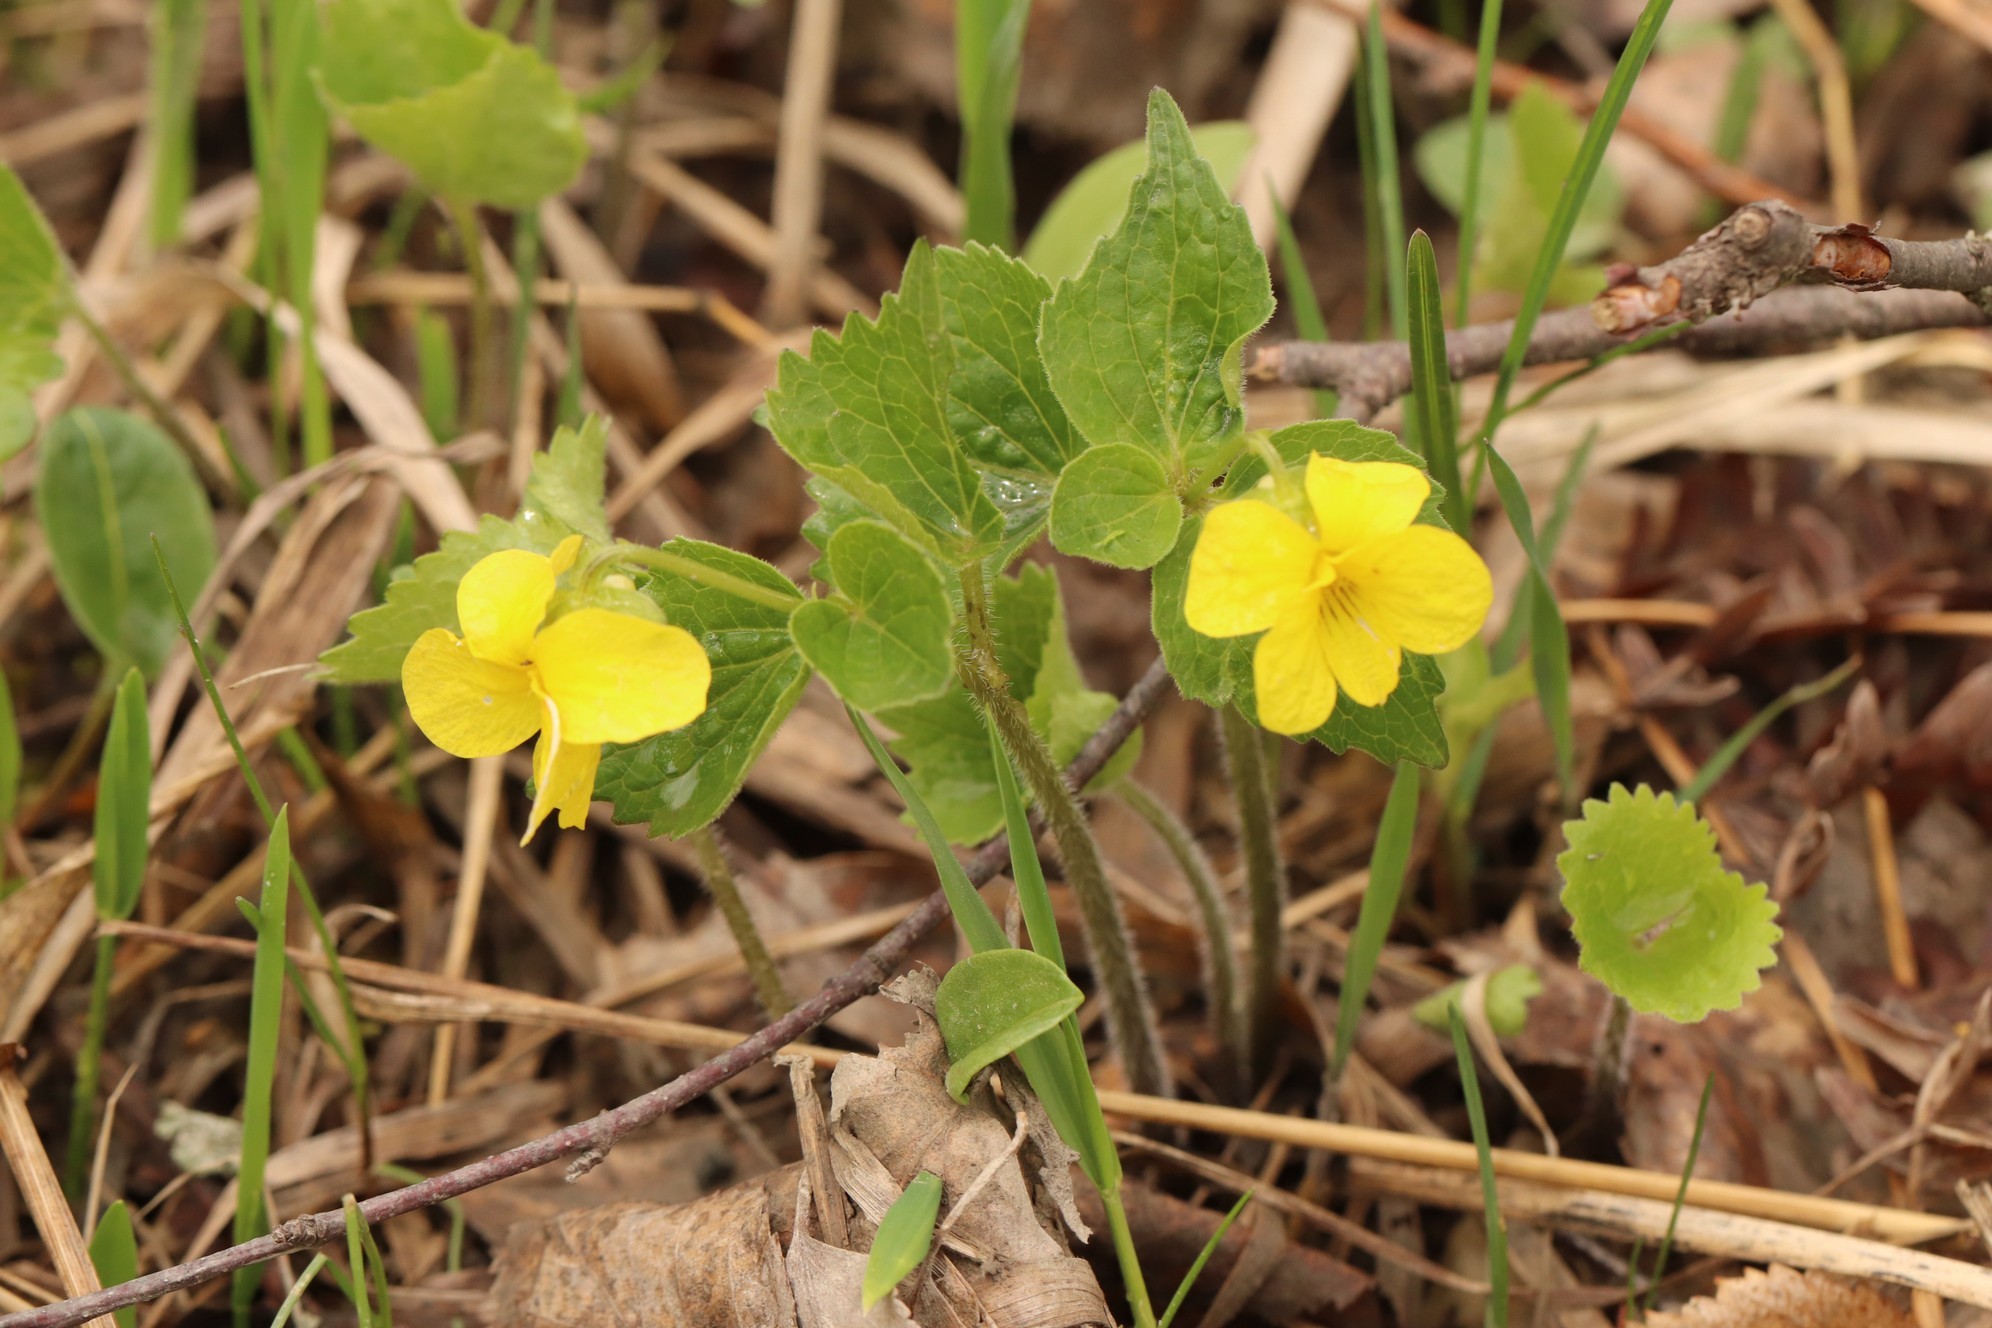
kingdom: Plantae
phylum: Tracheophyta
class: Magnoliopsida
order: Malpighiales
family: Violaceae
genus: Viola
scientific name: Viola uniflora
